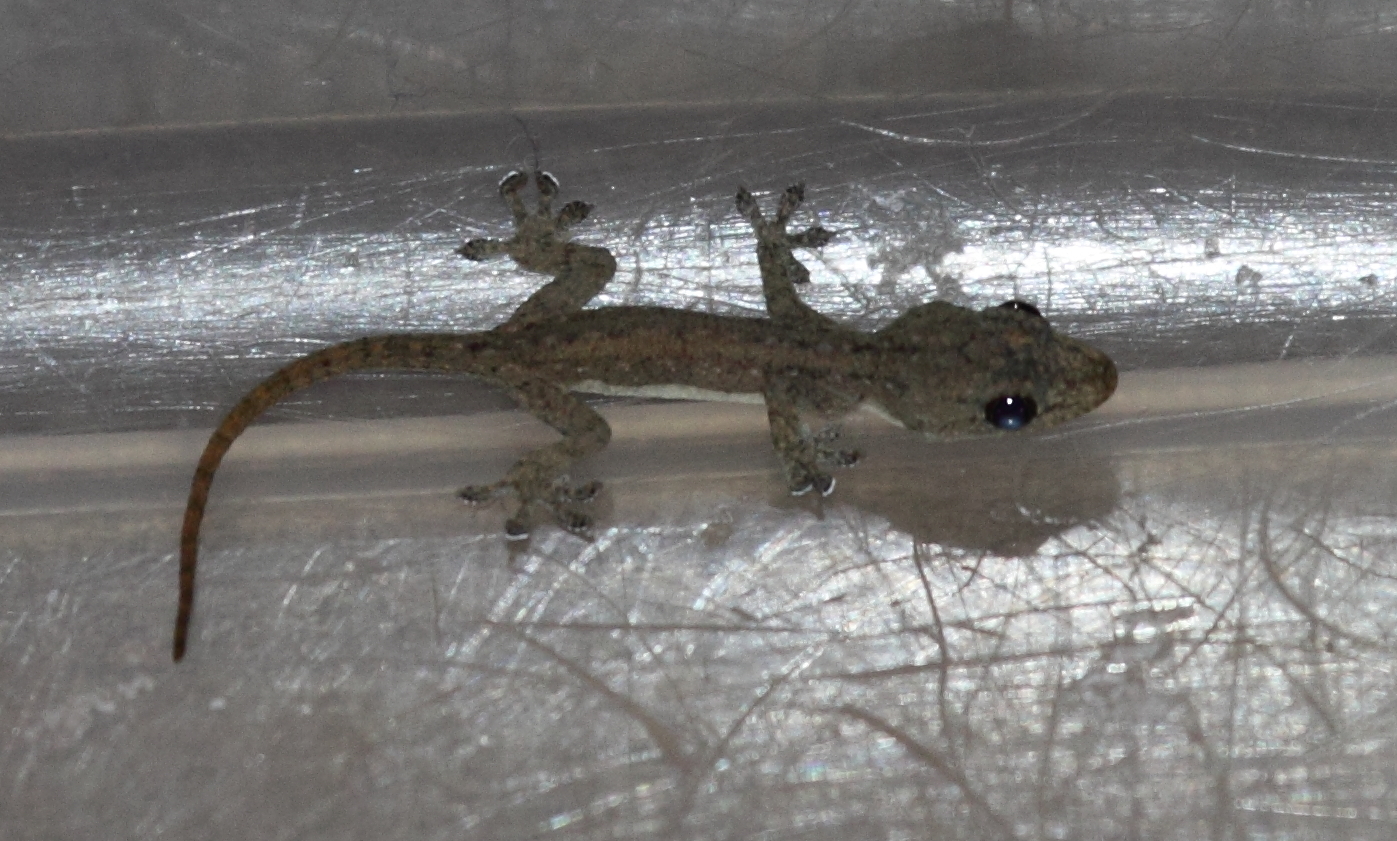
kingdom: Animalia
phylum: Chordata
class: Squamata
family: Gekkonidae
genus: Hemidactylus
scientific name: Hemidactylus frenatus
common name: Common house gecko
